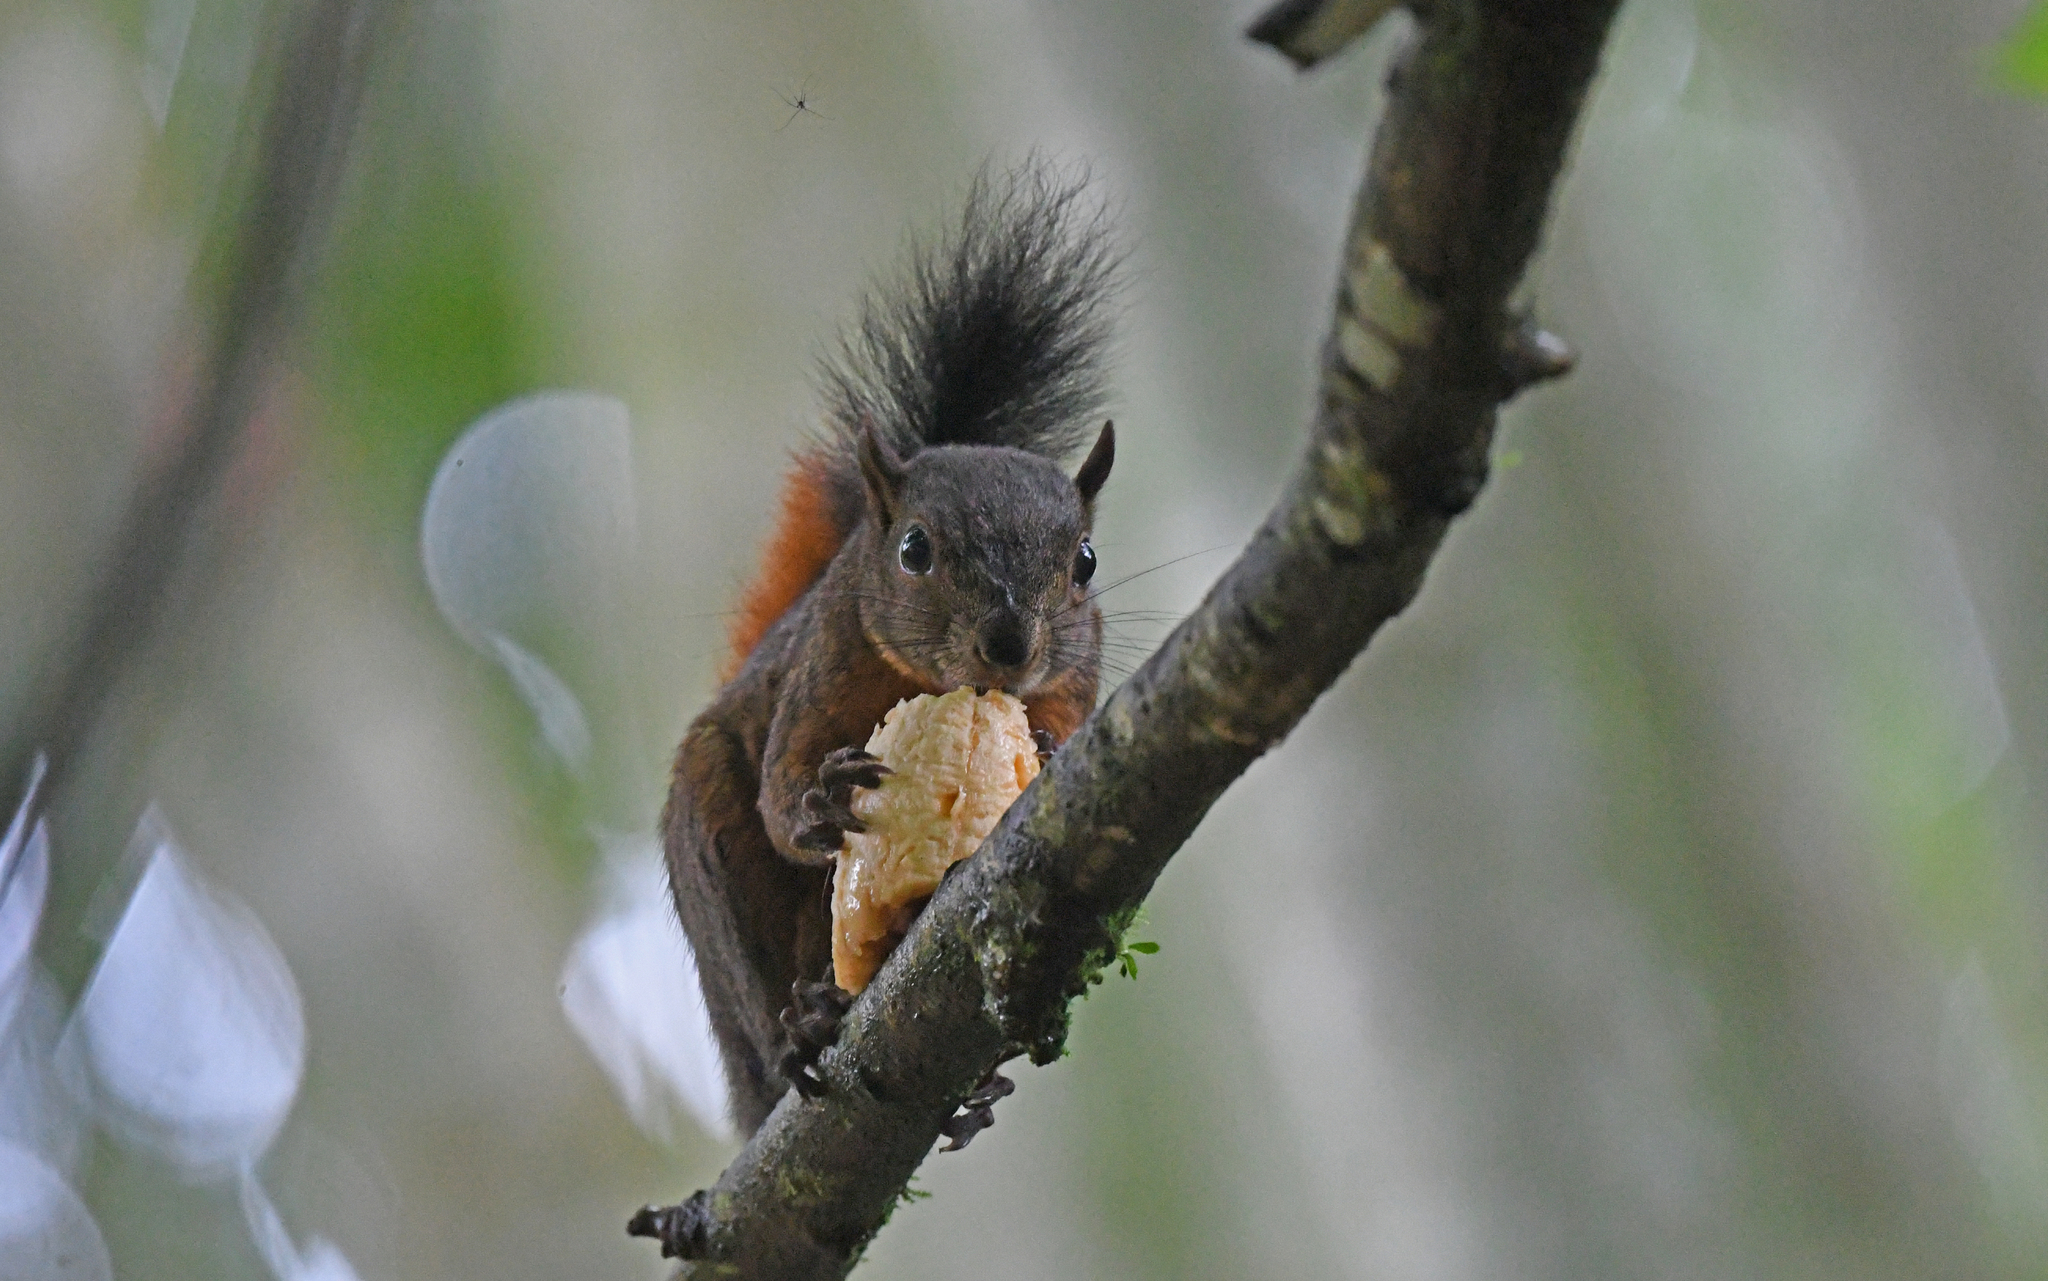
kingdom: Animalia
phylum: Chordata
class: Mammalia
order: Rodentia
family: Sciuridae
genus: Sciurus
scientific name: Sciurus granatensis
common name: Red-tailed squirrel
